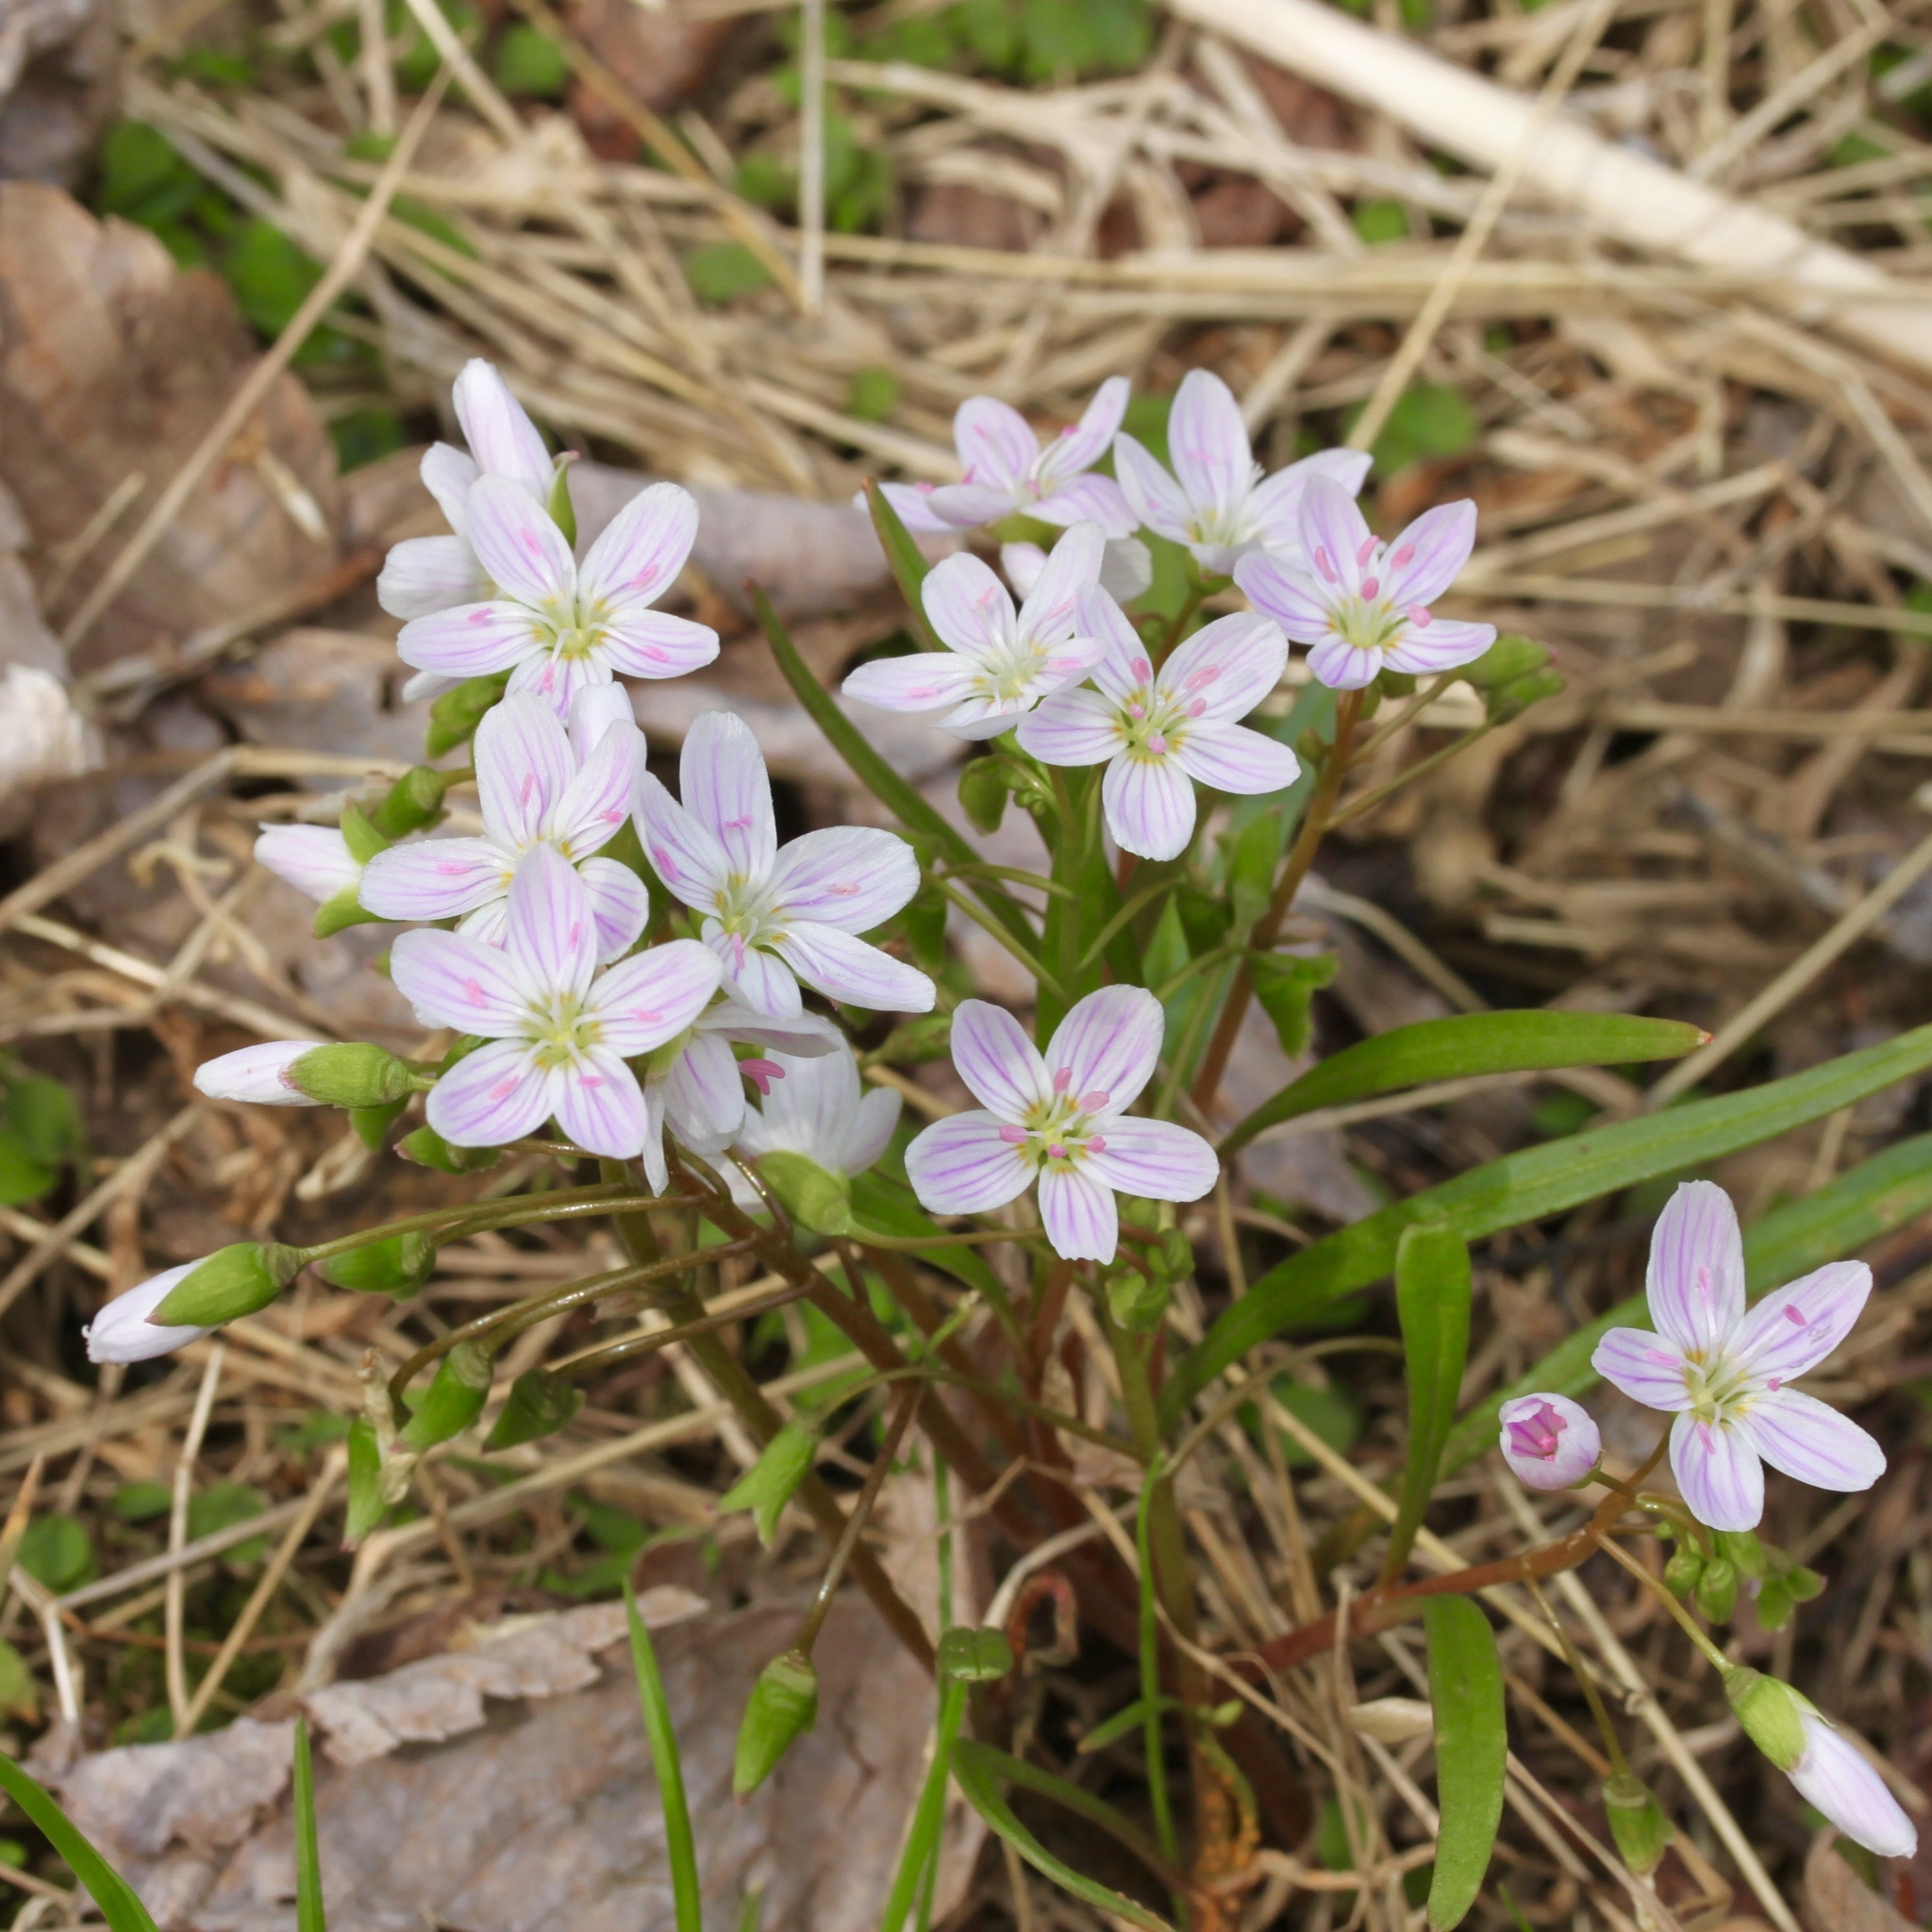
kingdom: Plantae
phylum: Tracheophyta
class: Magnoliopsida
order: Caryophyllales
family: Montiaceae
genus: Claytonia
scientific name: Claytonia virginica
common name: Virginia springbeauty
